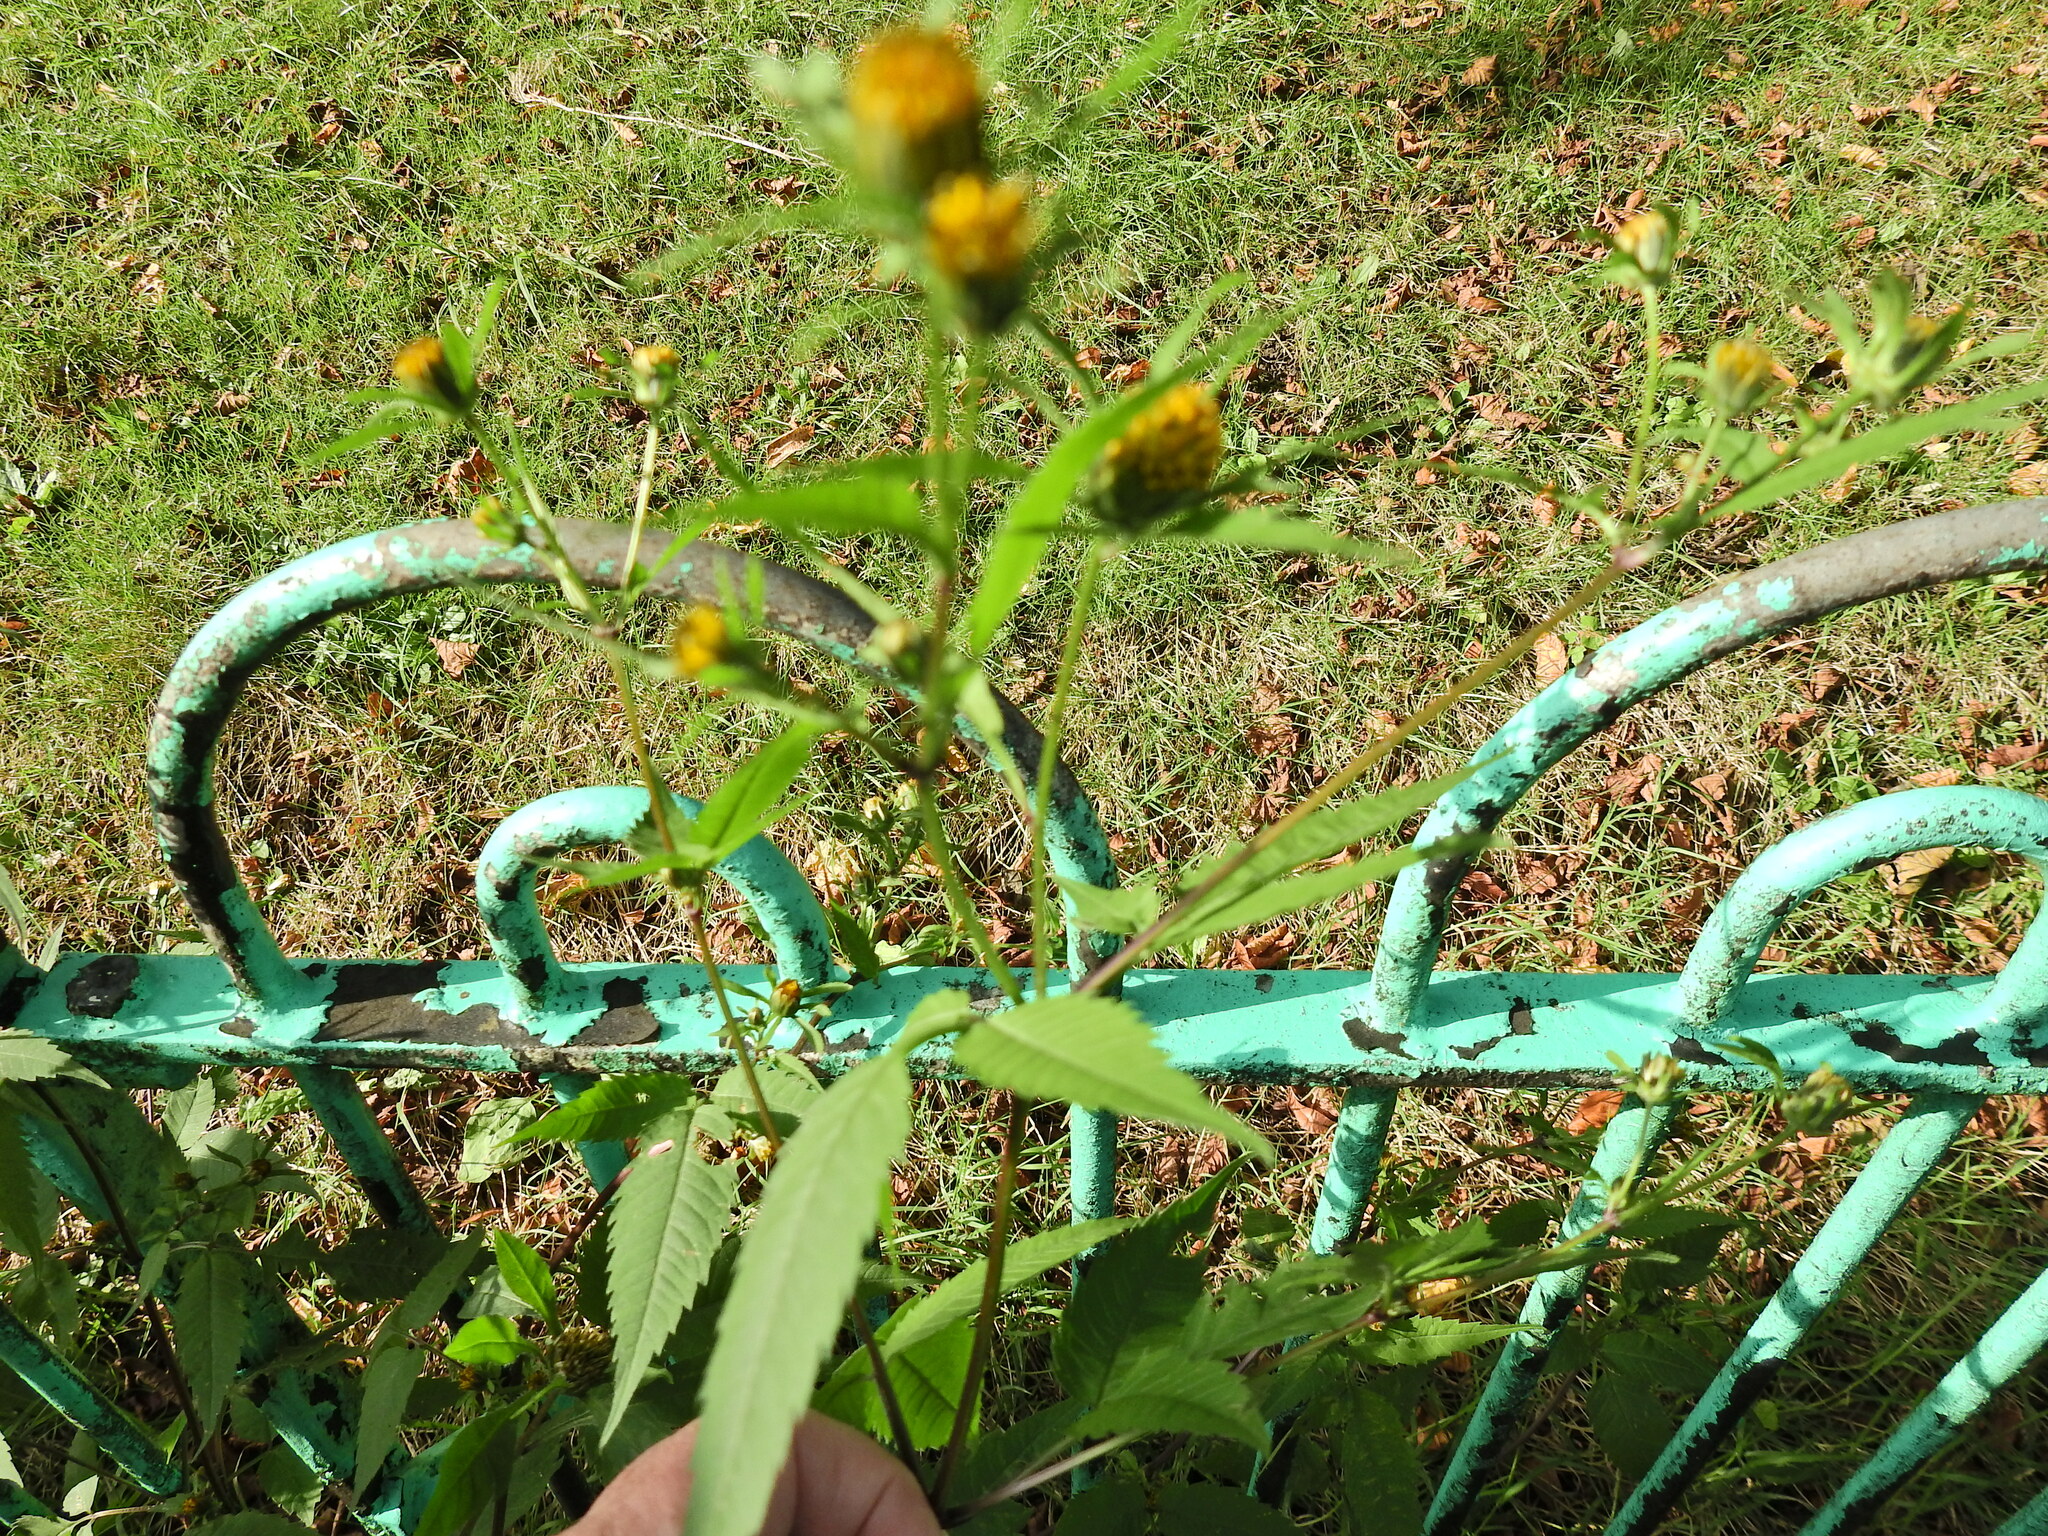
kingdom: Plantae
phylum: Tracheophyta
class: Magnoliopsida
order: Asterales
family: Asteraceae
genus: Bidens
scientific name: Bidens tripartita
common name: Trifid bur-marigold
